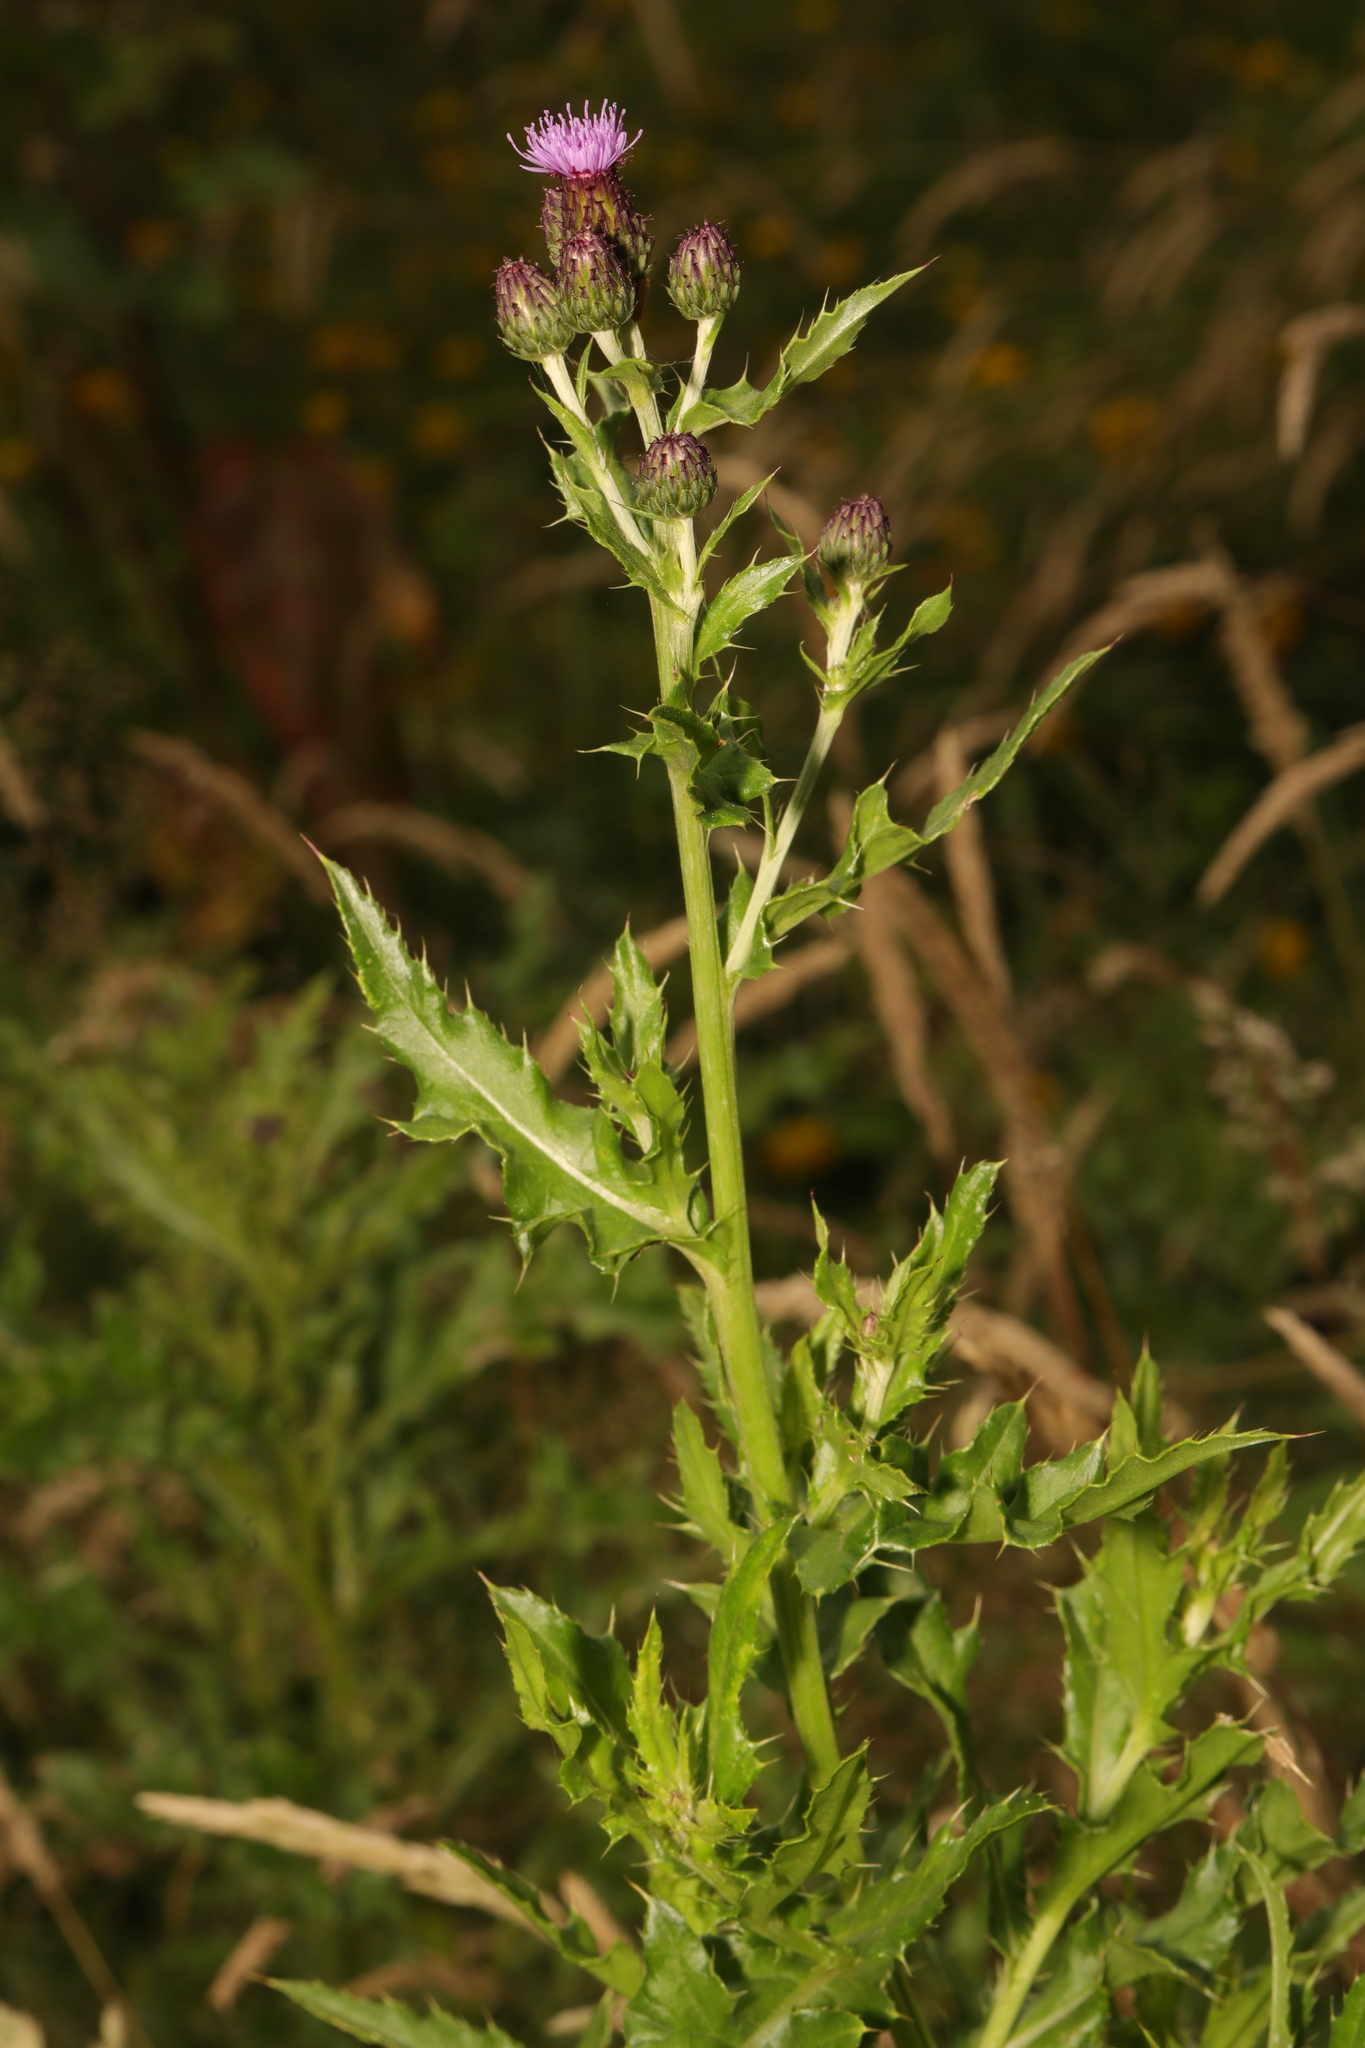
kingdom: Plantae
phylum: Tracheophyta
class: Magnoliopsida
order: Asterales
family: Asteraceae
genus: Cirsium
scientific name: Cirsium arvense
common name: Creeping thistle
